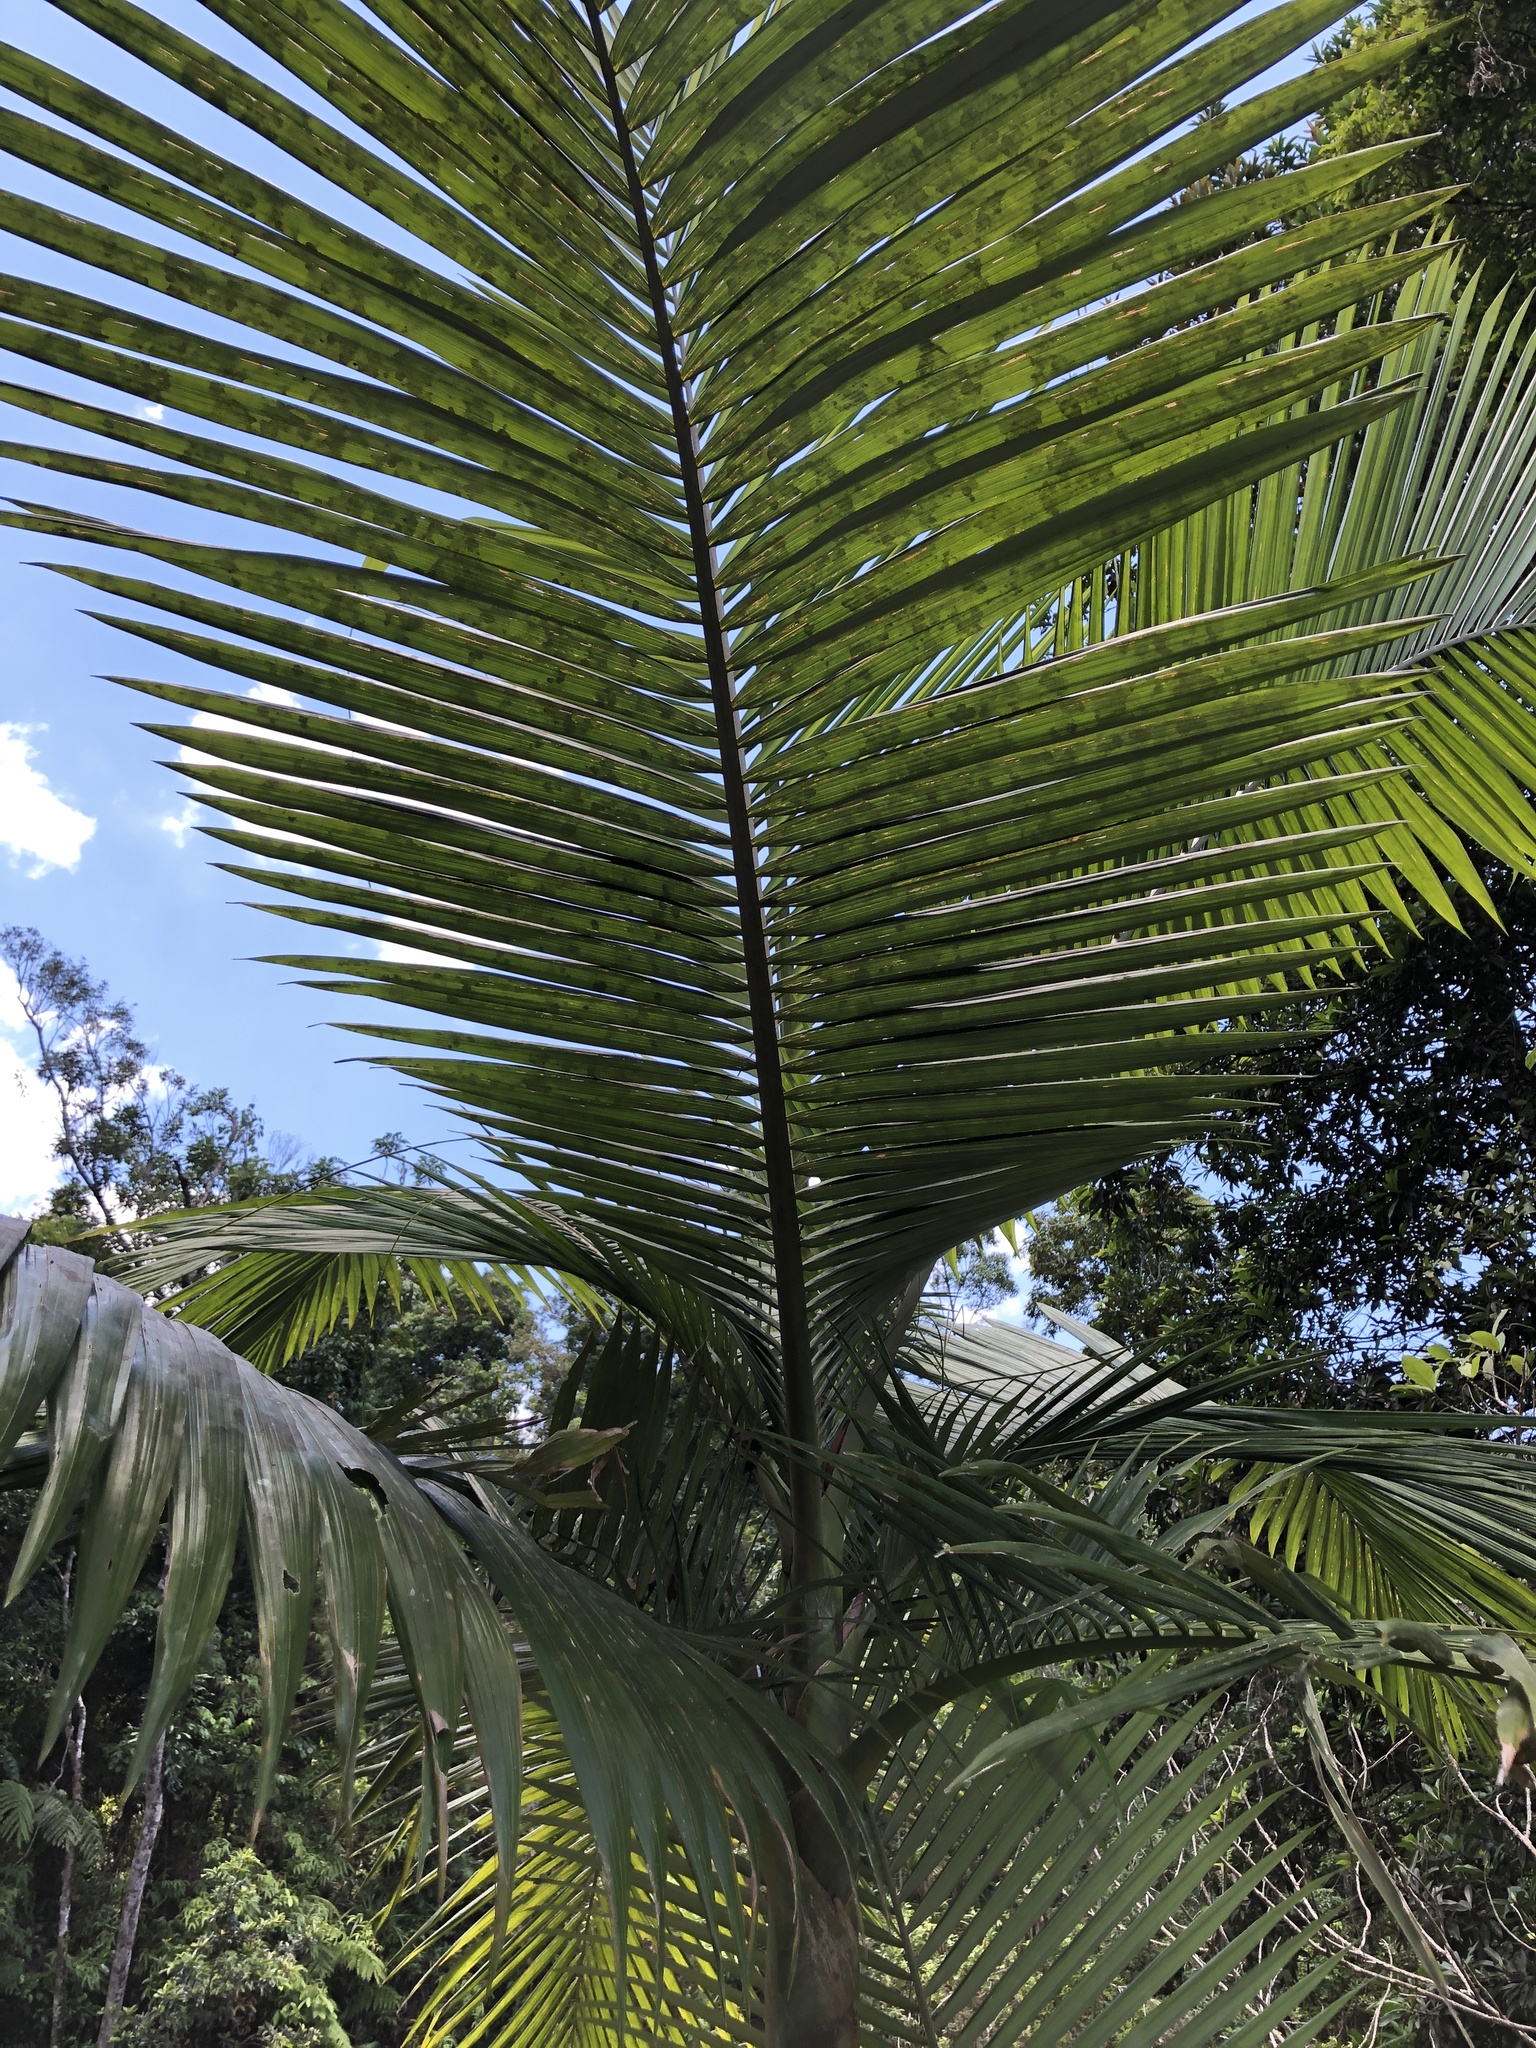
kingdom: Plantae
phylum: Tracheophyta
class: Liliopsida
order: Arecales
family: Arecaceae
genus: Archontophoenix
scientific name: Archontophoenix alexandrae
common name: Alexandra palm
